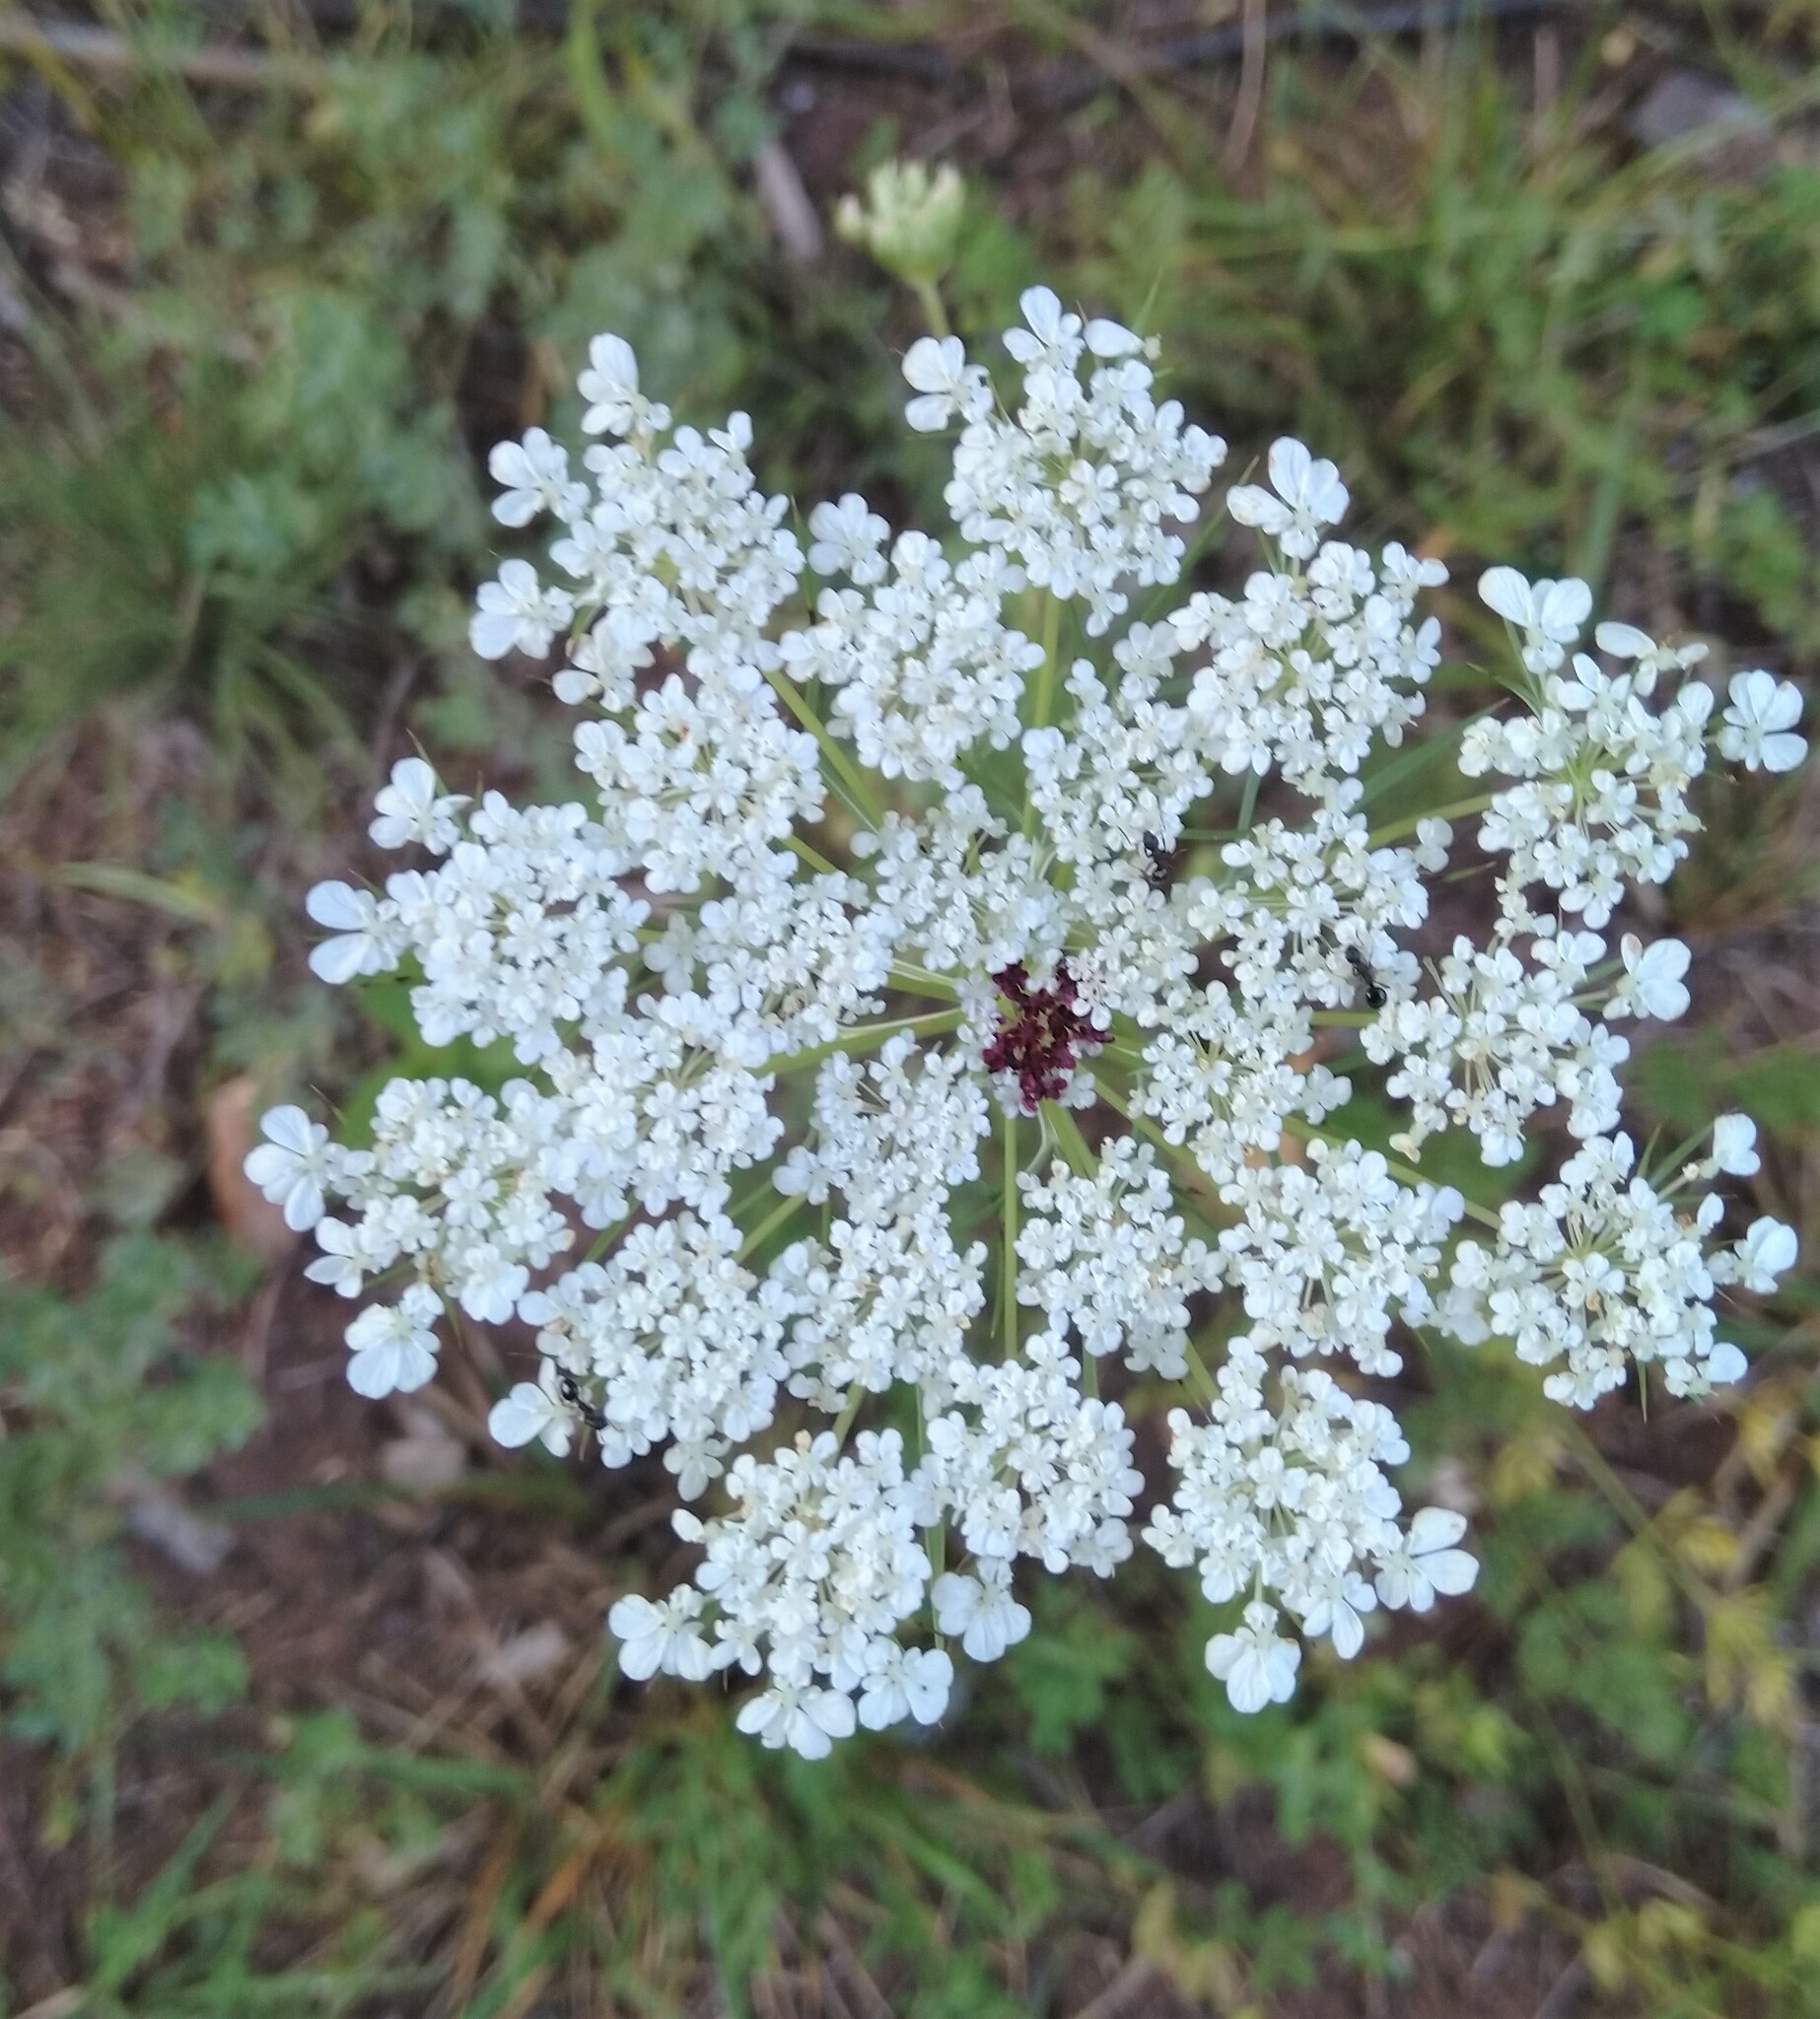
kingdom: Plantae
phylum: Tracheophyta
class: Magnoliopsida
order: Apiales
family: Apiaceae
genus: Daucus
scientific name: Daucus carota
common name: Wild carrot
